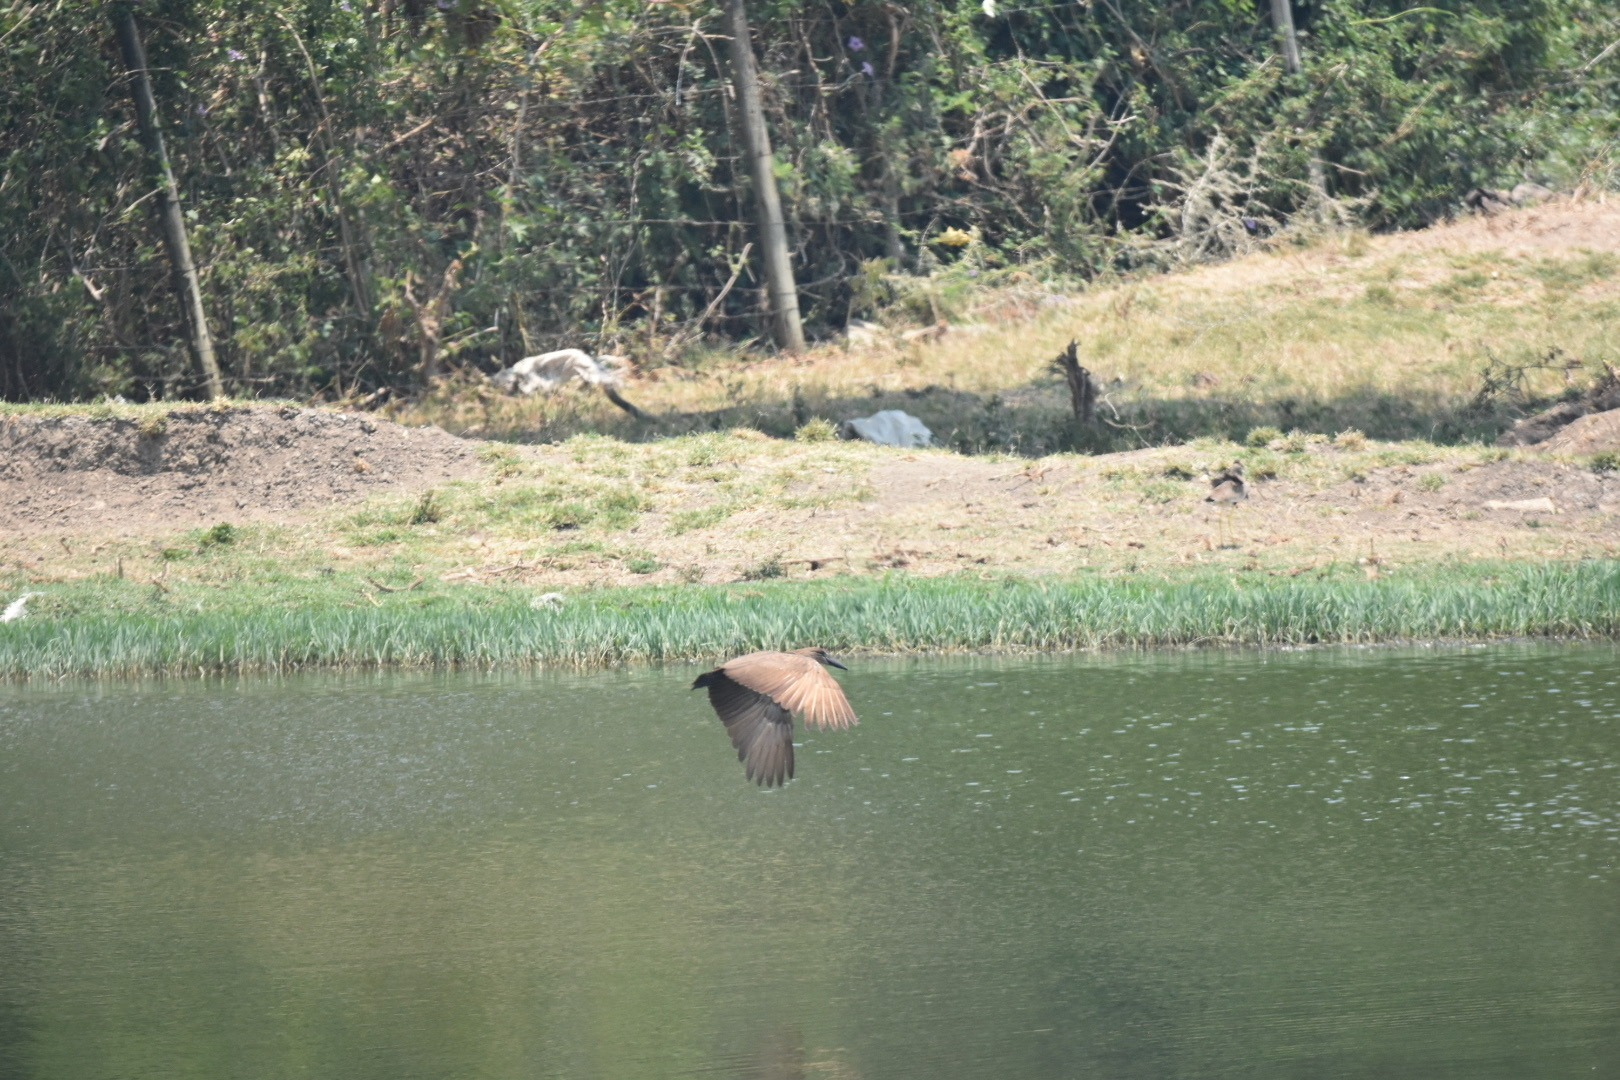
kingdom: Animalia
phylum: Chordata
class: Aves
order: Pelecaniformes
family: Scopidae
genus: Scopus
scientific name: Scopus umbretta
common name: Hamerkop
